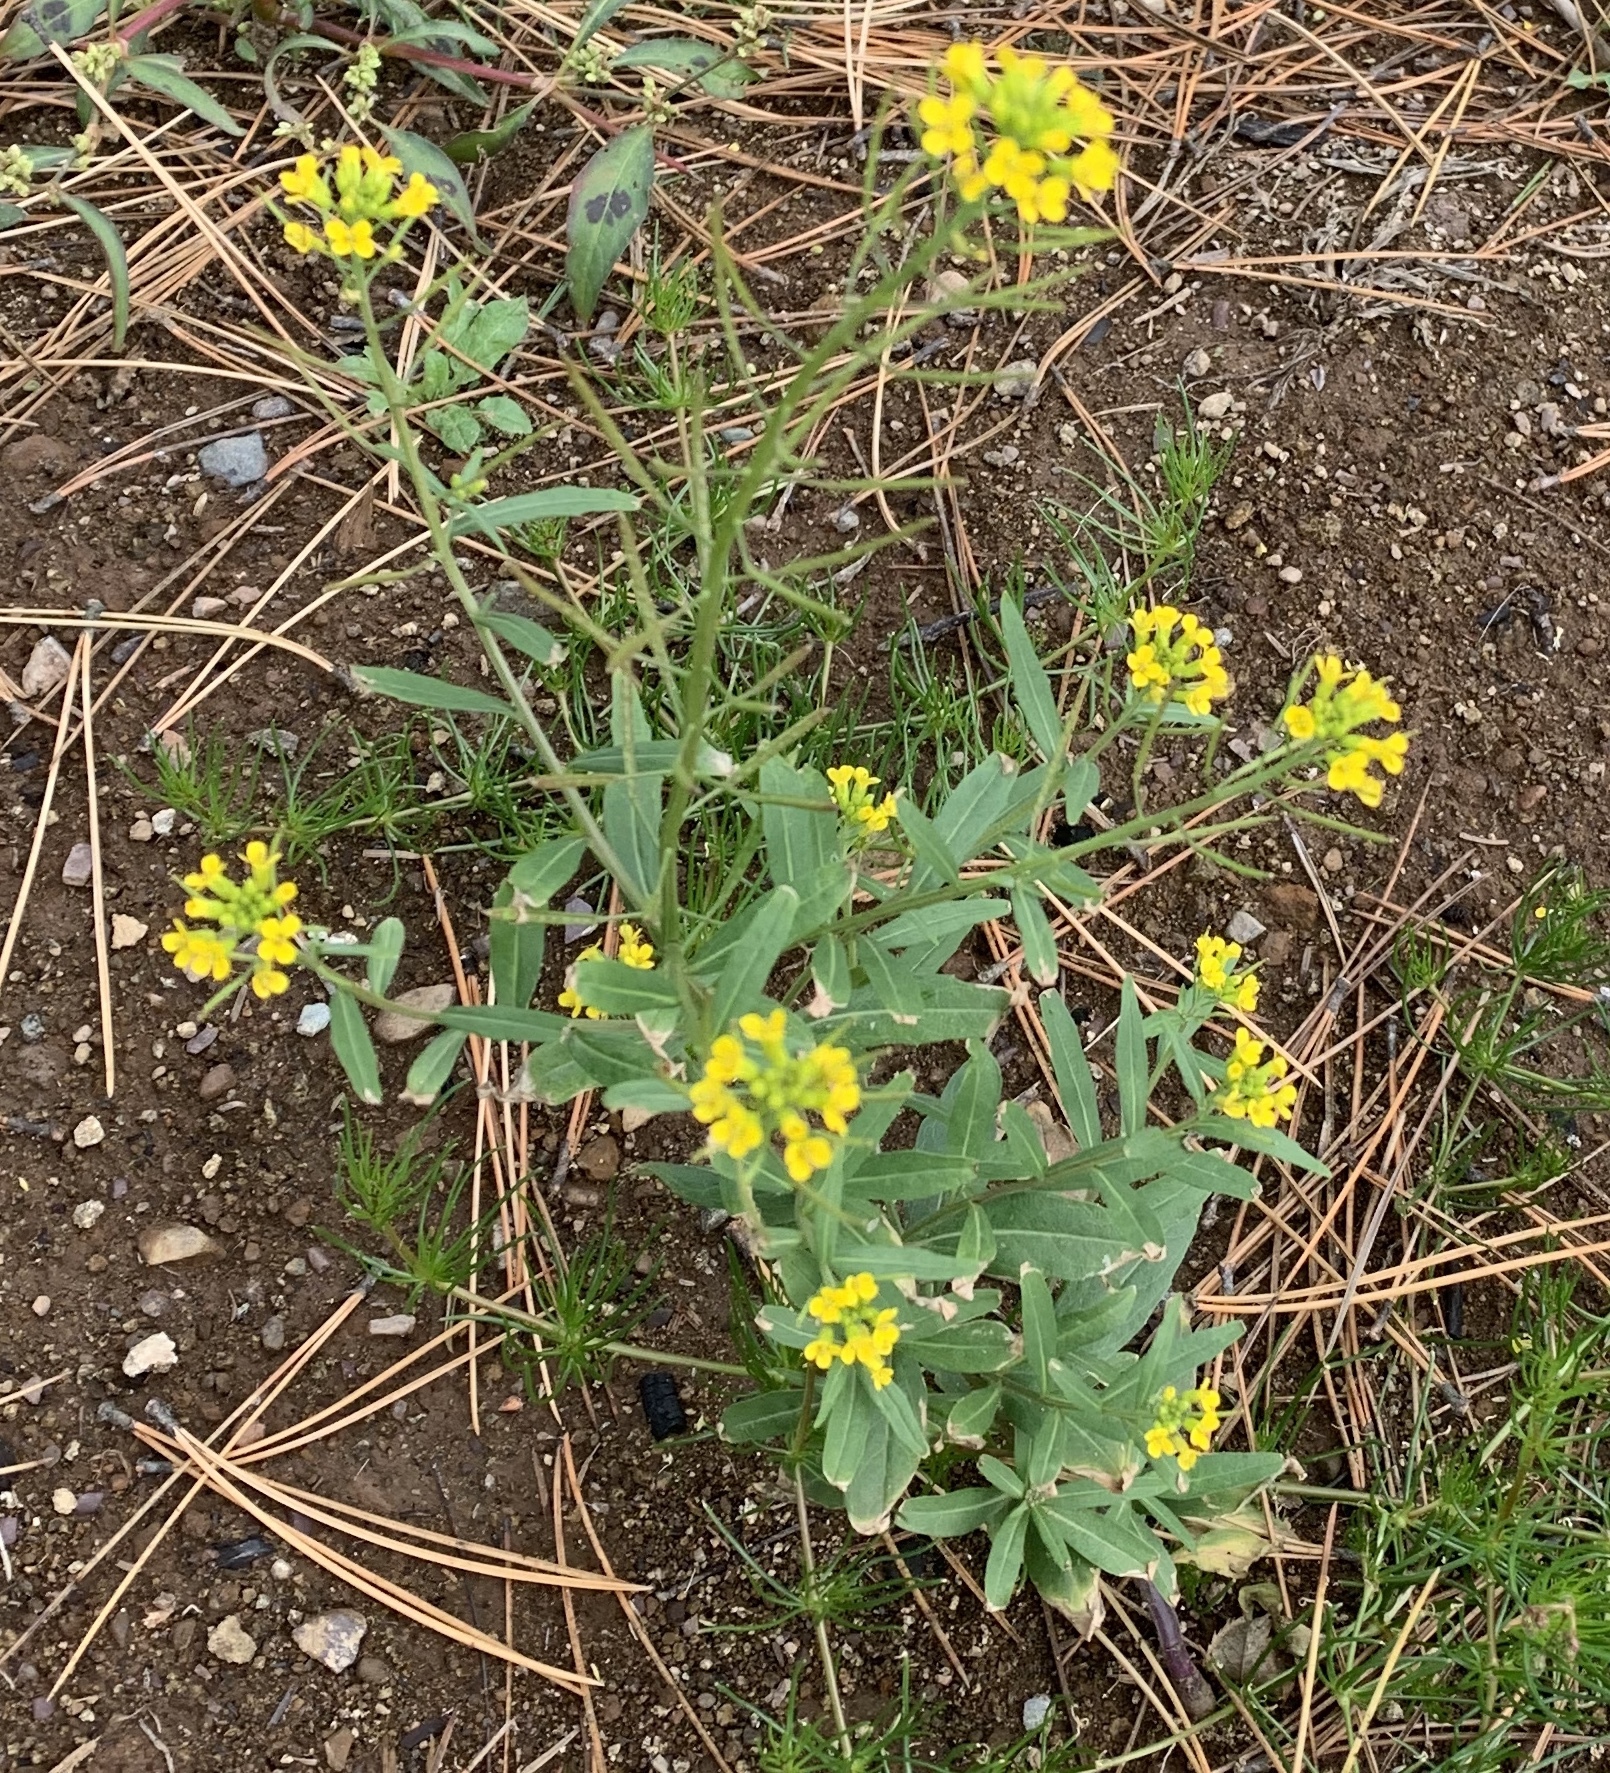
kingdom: Plantae
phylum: Tracheophyta
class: Magnoliopsida
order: Brassicales
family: Brassicaceae
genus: Erysimum
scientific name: Erysimum cheiranthoides
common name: Treacle mustard
